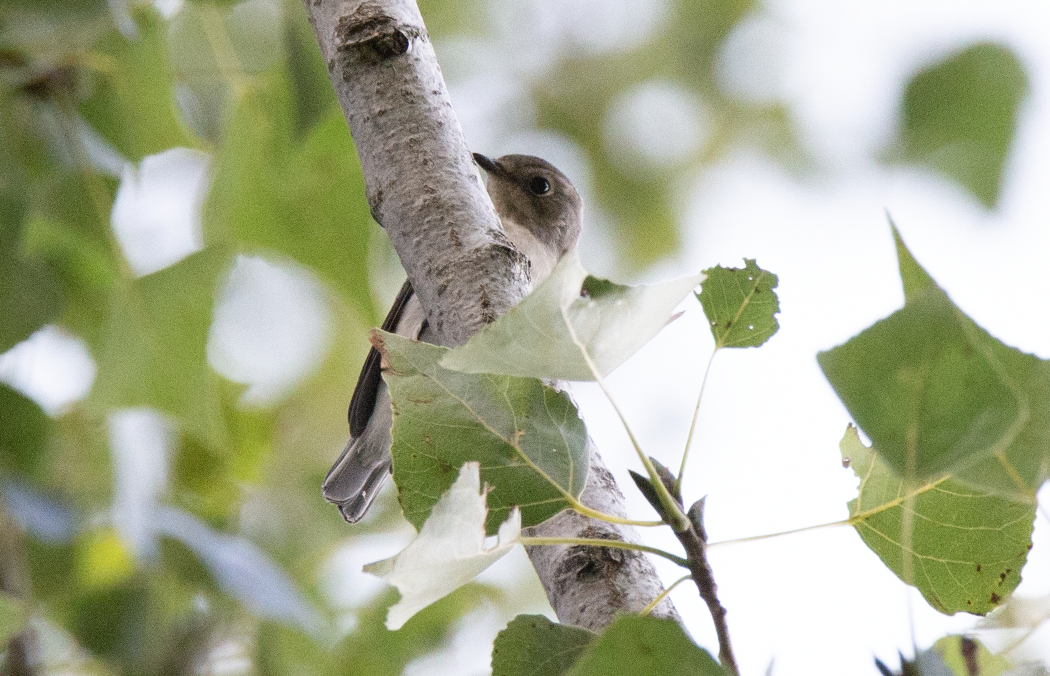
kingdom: Animalia
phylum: Chordata
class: Aves
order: Passeriformes
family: Muscicapidae
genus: Ficedula
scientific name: Ficedula hypoleuca
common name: European pied flycatcher
